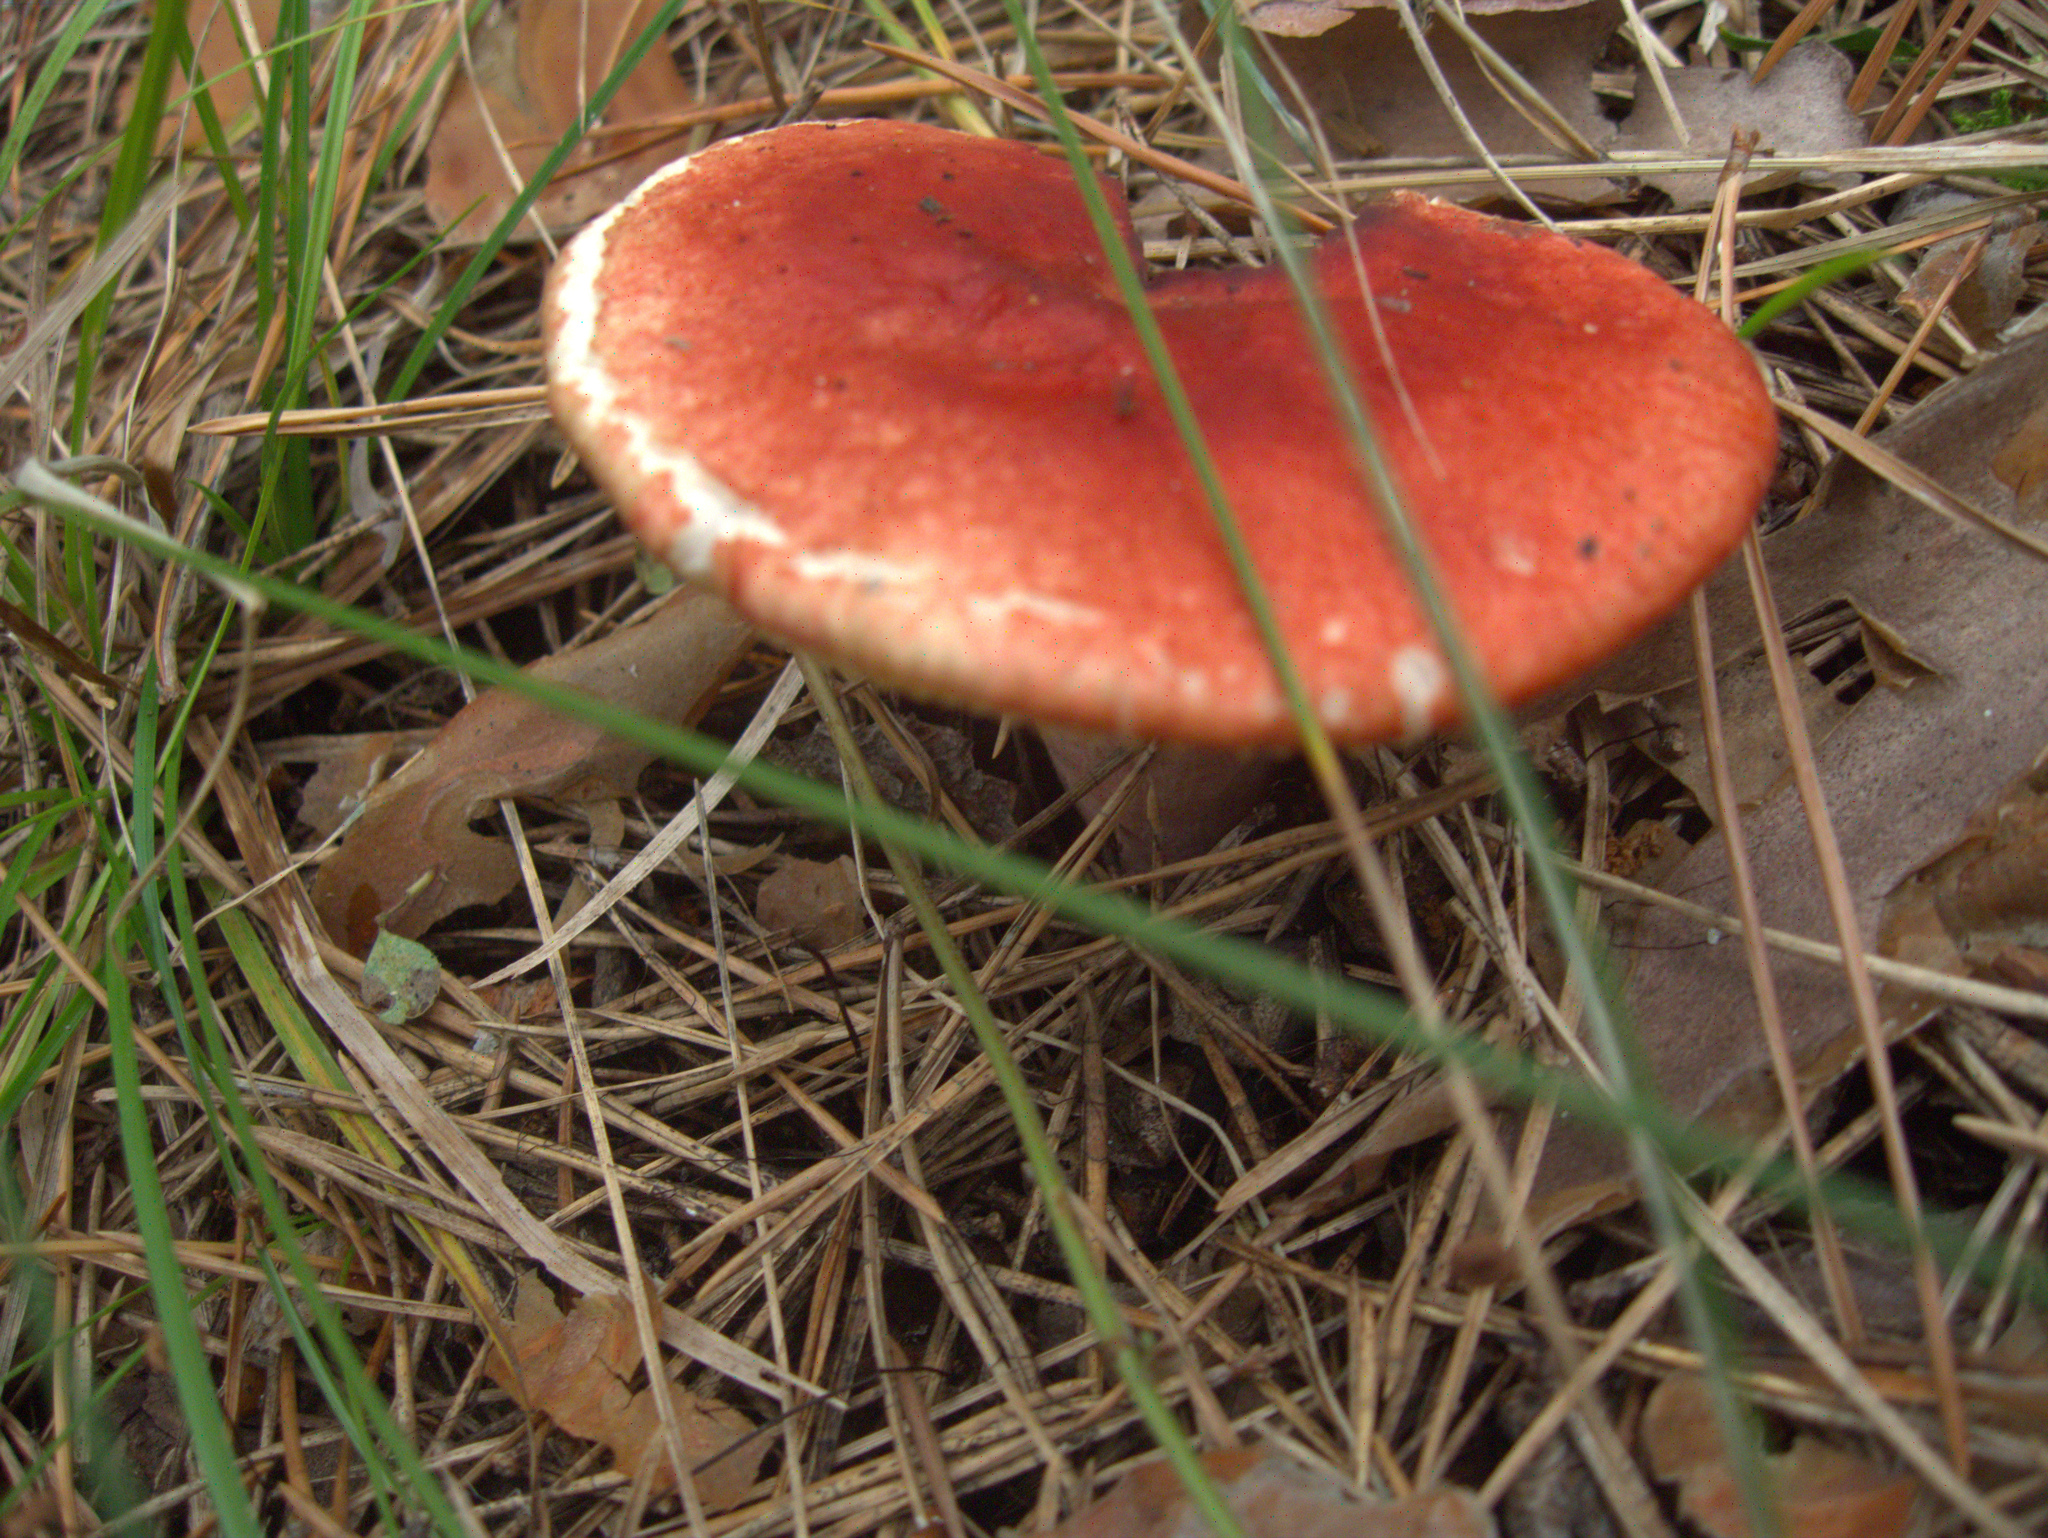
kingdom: Fungi
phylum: Basidiomycota
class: Agaricomycetes
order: Russulales
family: Russulaceae
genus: Russula
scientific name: Russula
